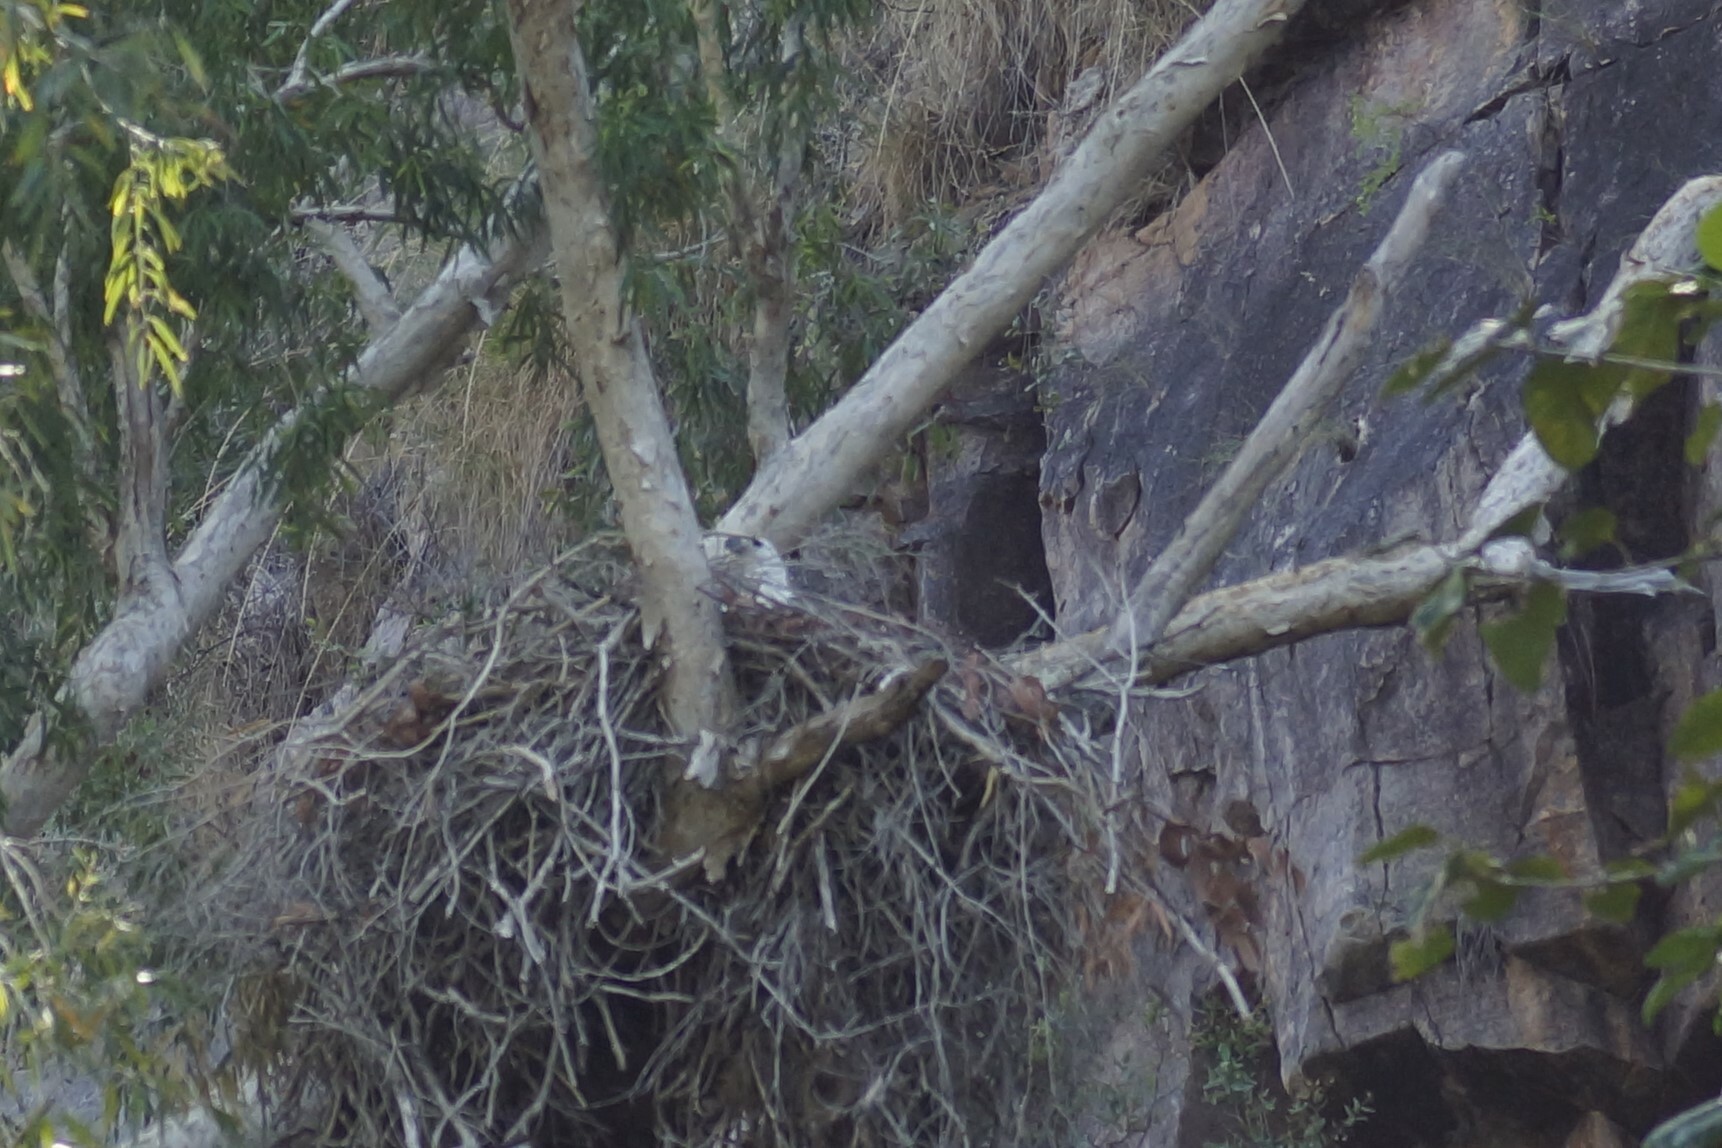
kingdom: Animalia
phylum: Chordata
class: Aves
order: Accipitriformes
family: Accipitridae
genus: Haliaeetus
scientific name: Haliaeetus leucogaster
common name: White-bellied sea eagle
